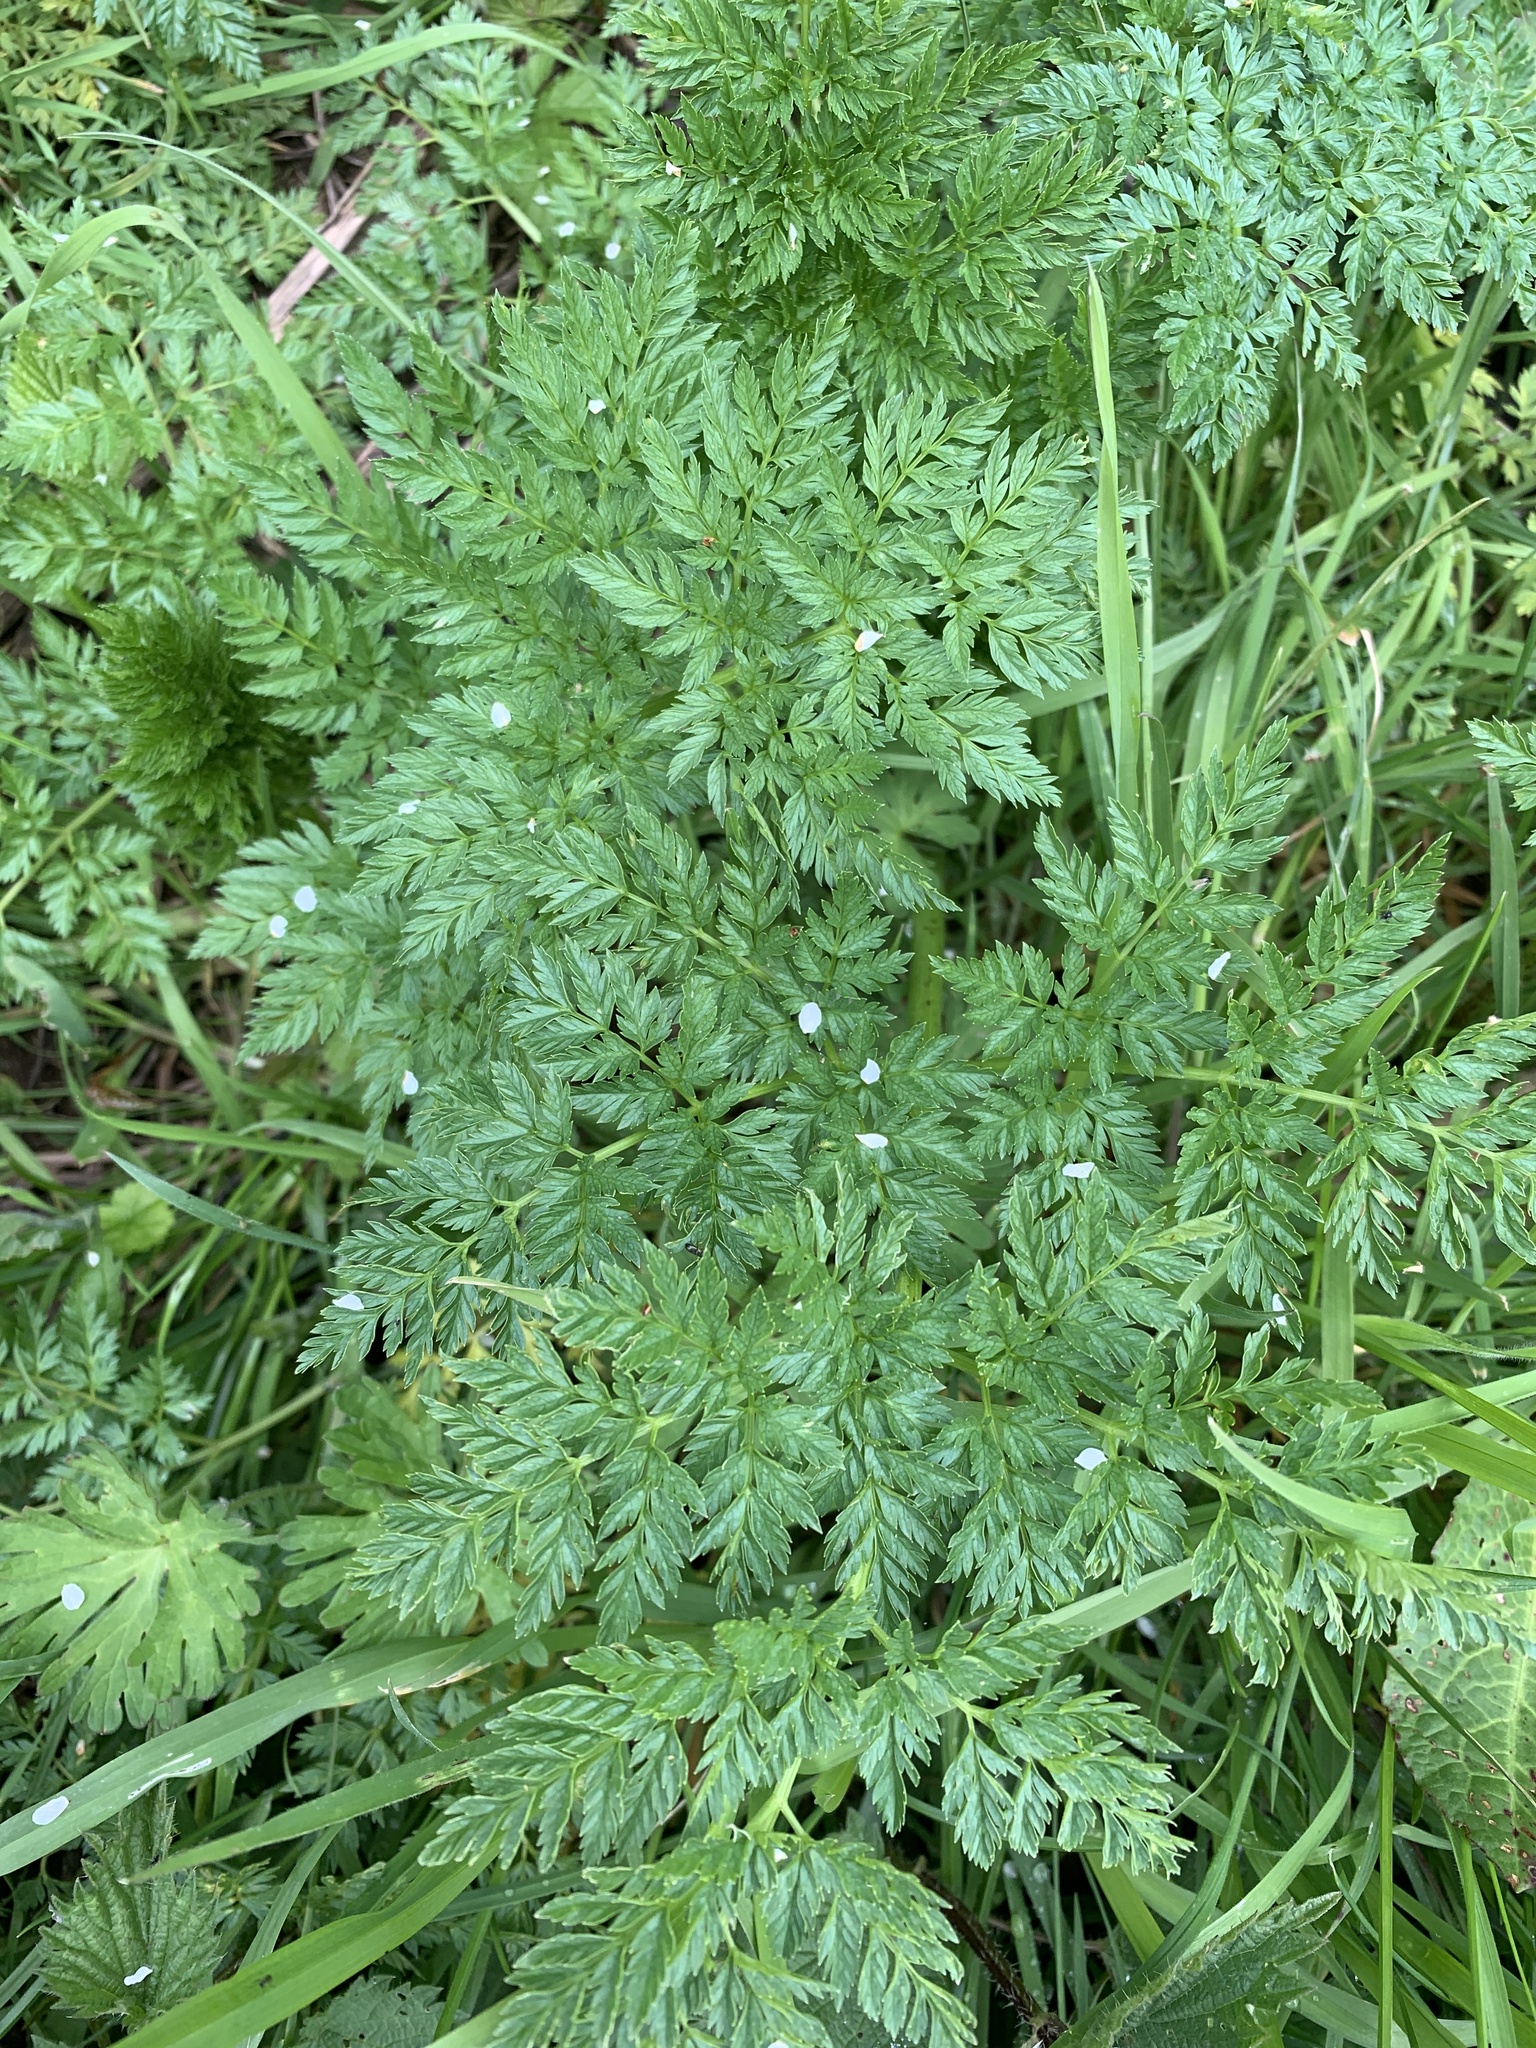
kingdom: Plantae
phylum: Tracheophyta
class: Magnoliopsida
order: Apiales
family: Apiaceae
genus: Conium
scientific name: Conium maculatum
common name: Hemlock
